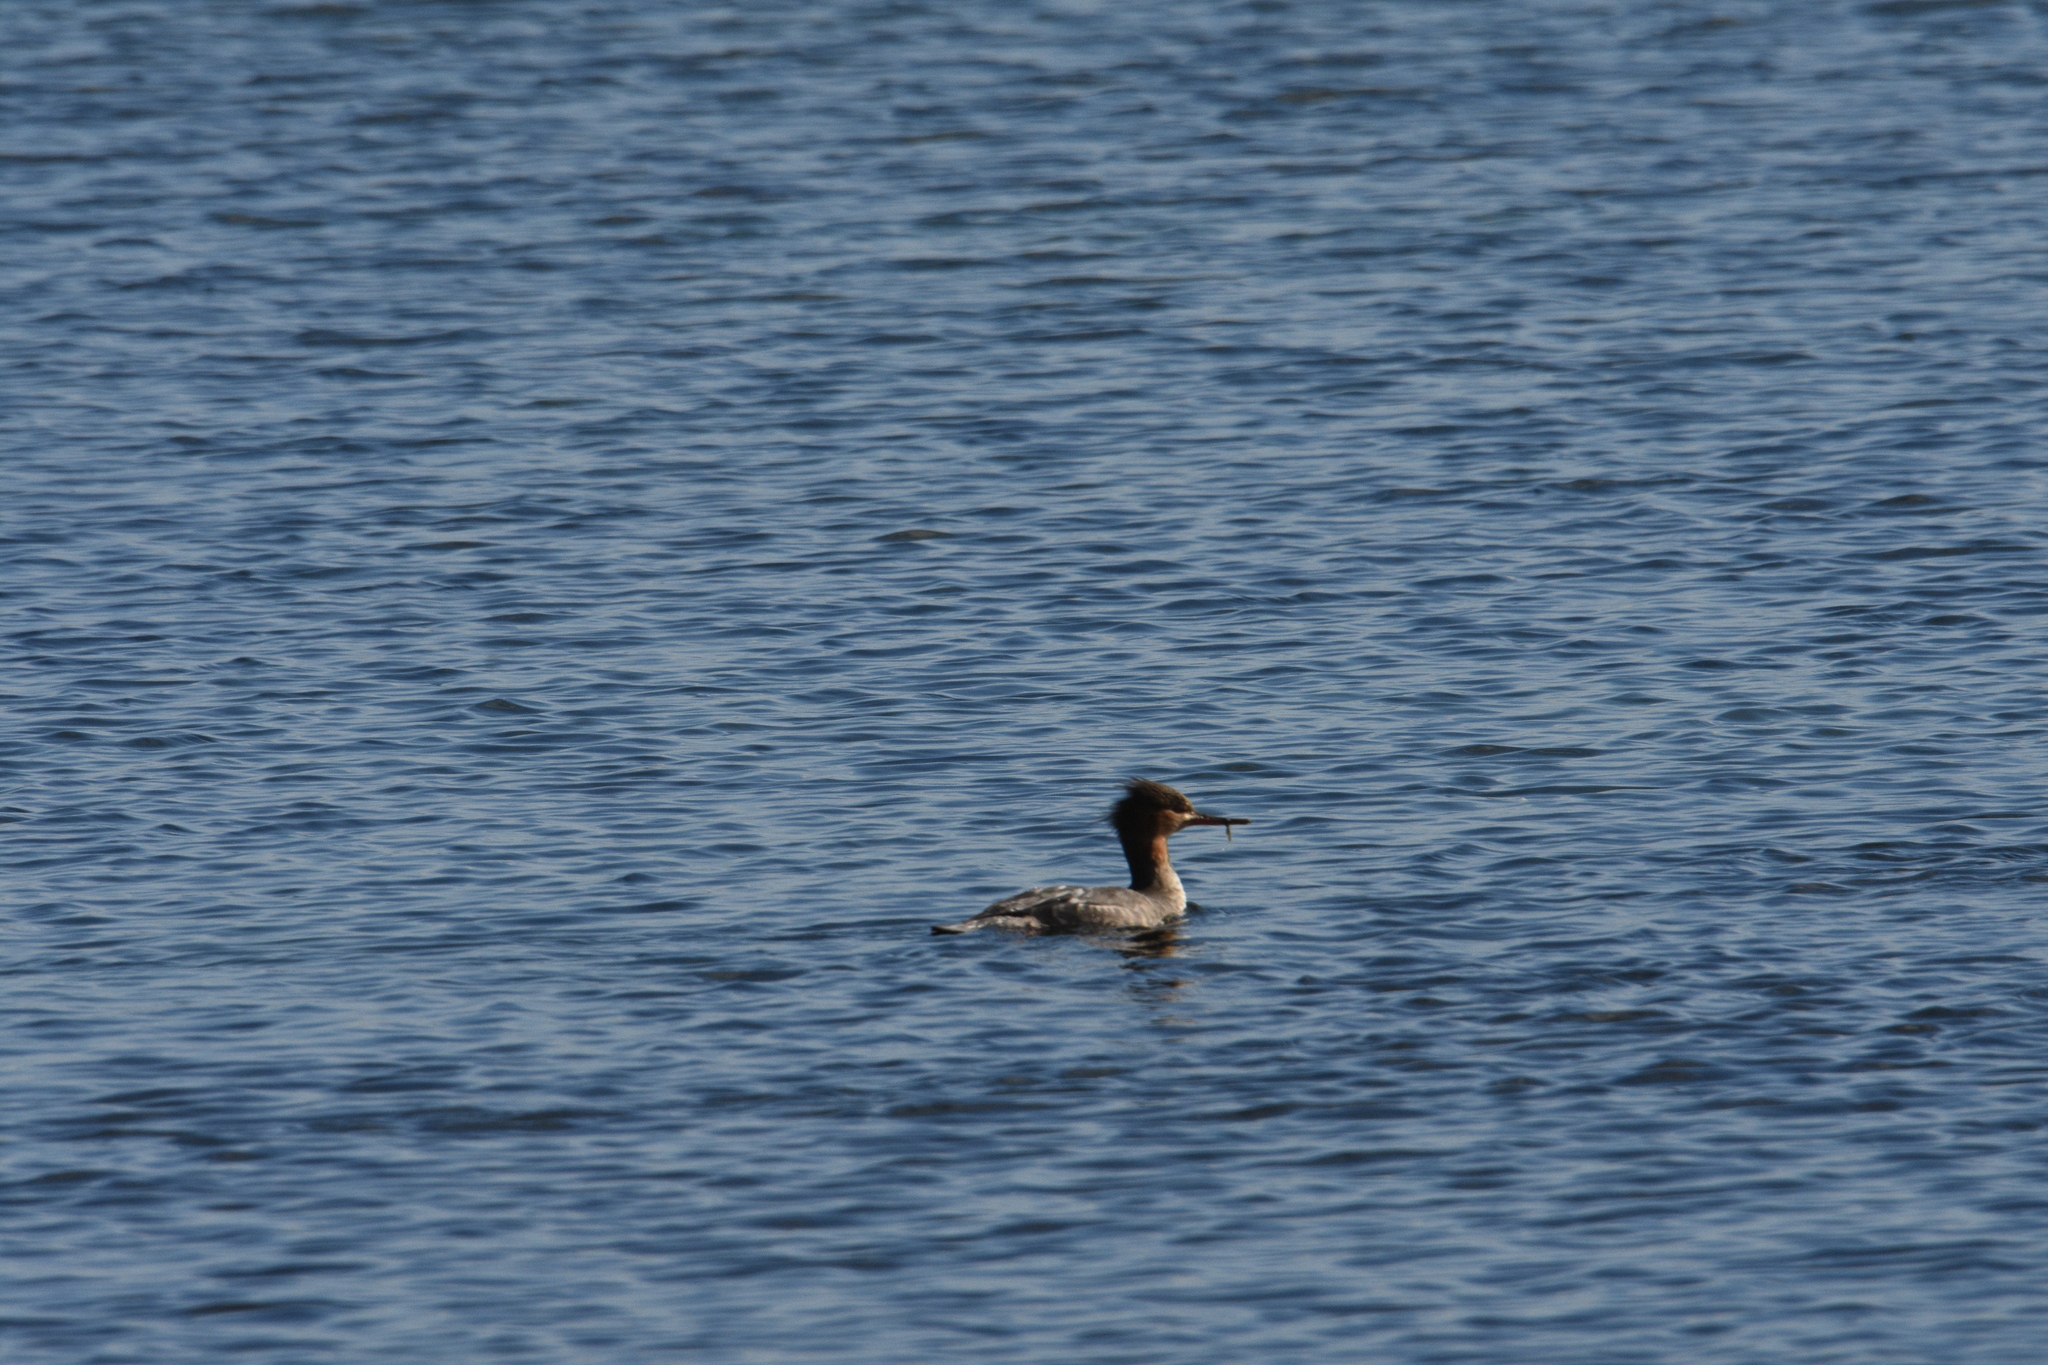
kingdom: Animalia
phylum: Chordata
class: Aves
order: Anseriformes
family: Anatidae
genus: Mergus
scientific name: Mergus serrator
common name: Red-breasted merganser
